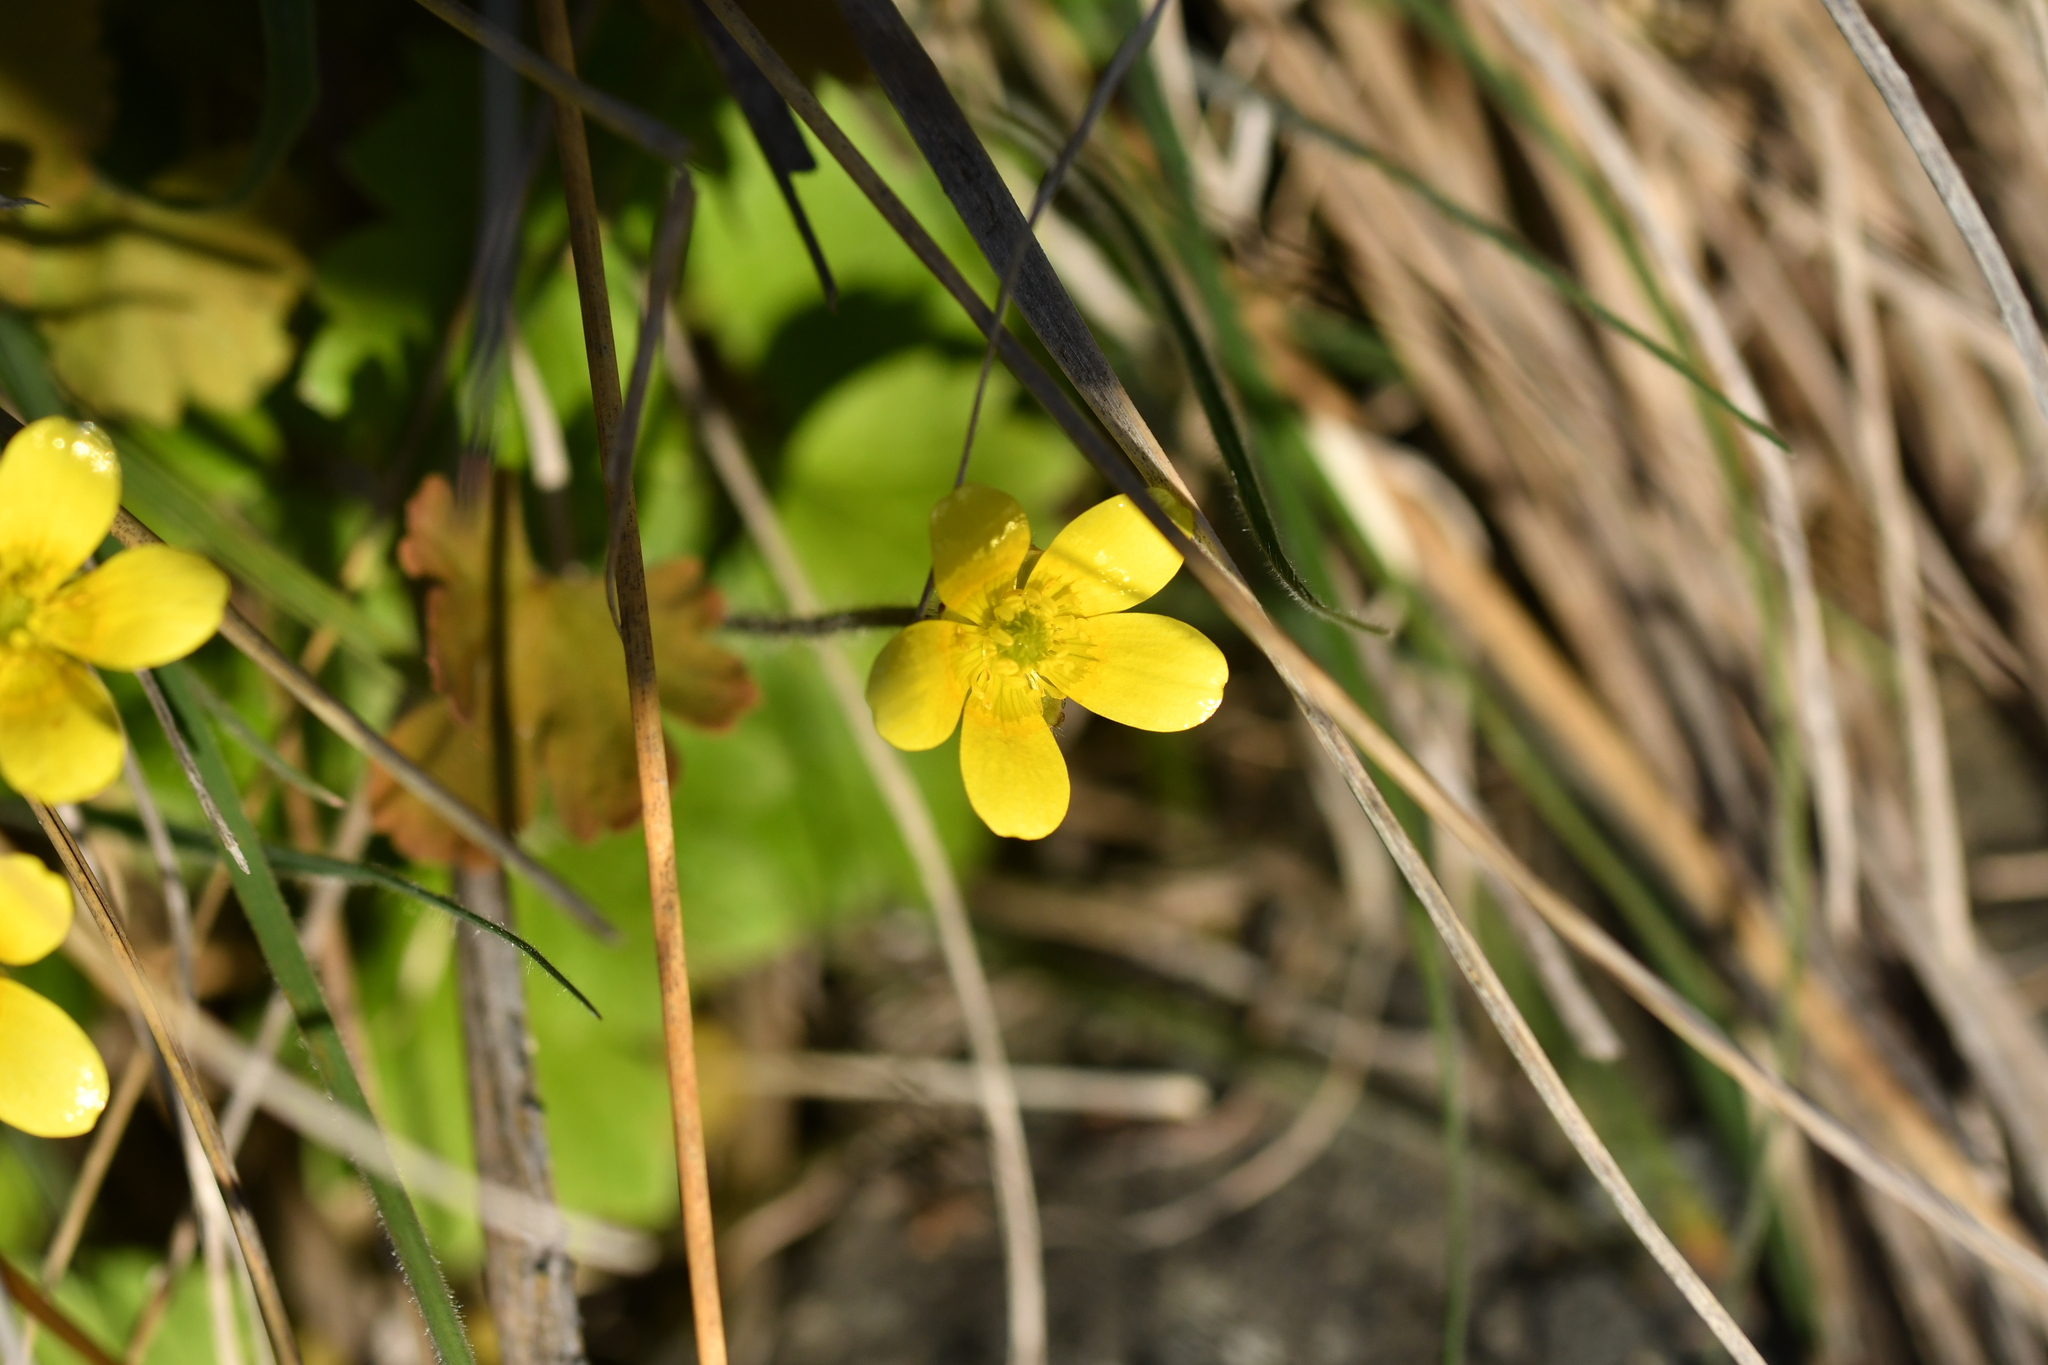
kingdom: Plantae
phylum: Tracheophyta
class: Magnoliopsida
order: Ranunculales
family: Ranunculaceae
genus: Ranunculus
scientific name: Ranunculus multiscapus
